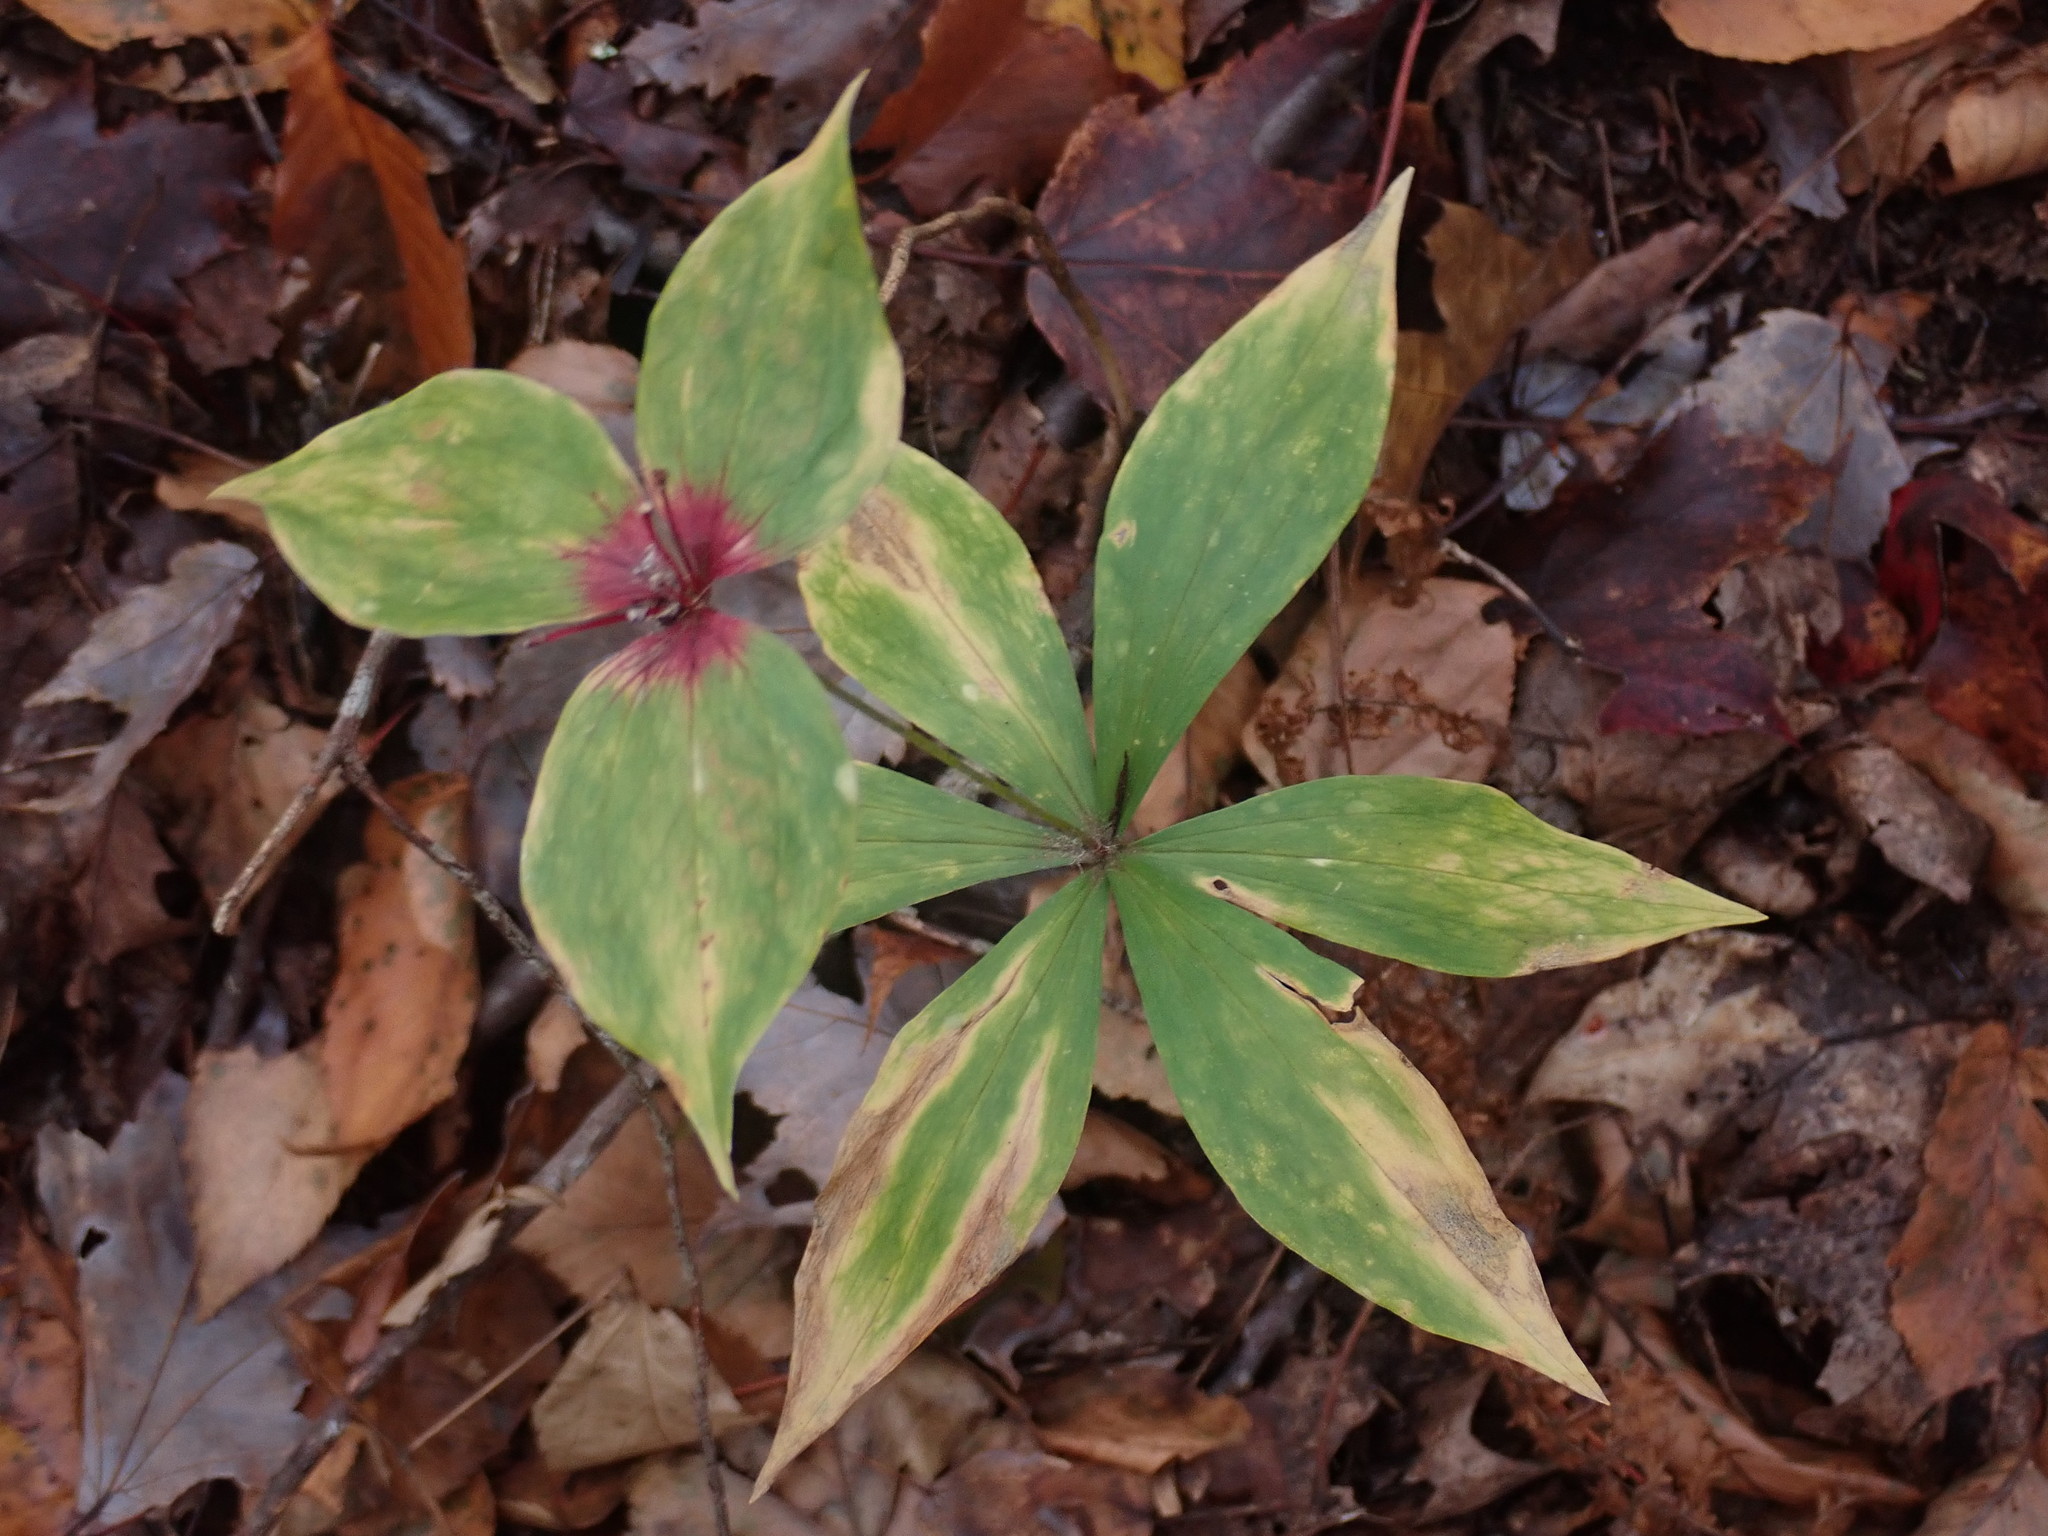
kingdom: Plantae
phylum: Tracheophyta
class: Liliopsida
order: Liliales
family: Liliaceae
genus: Medeola
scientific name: Medeola virginiana
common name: Indian cucumber-root
